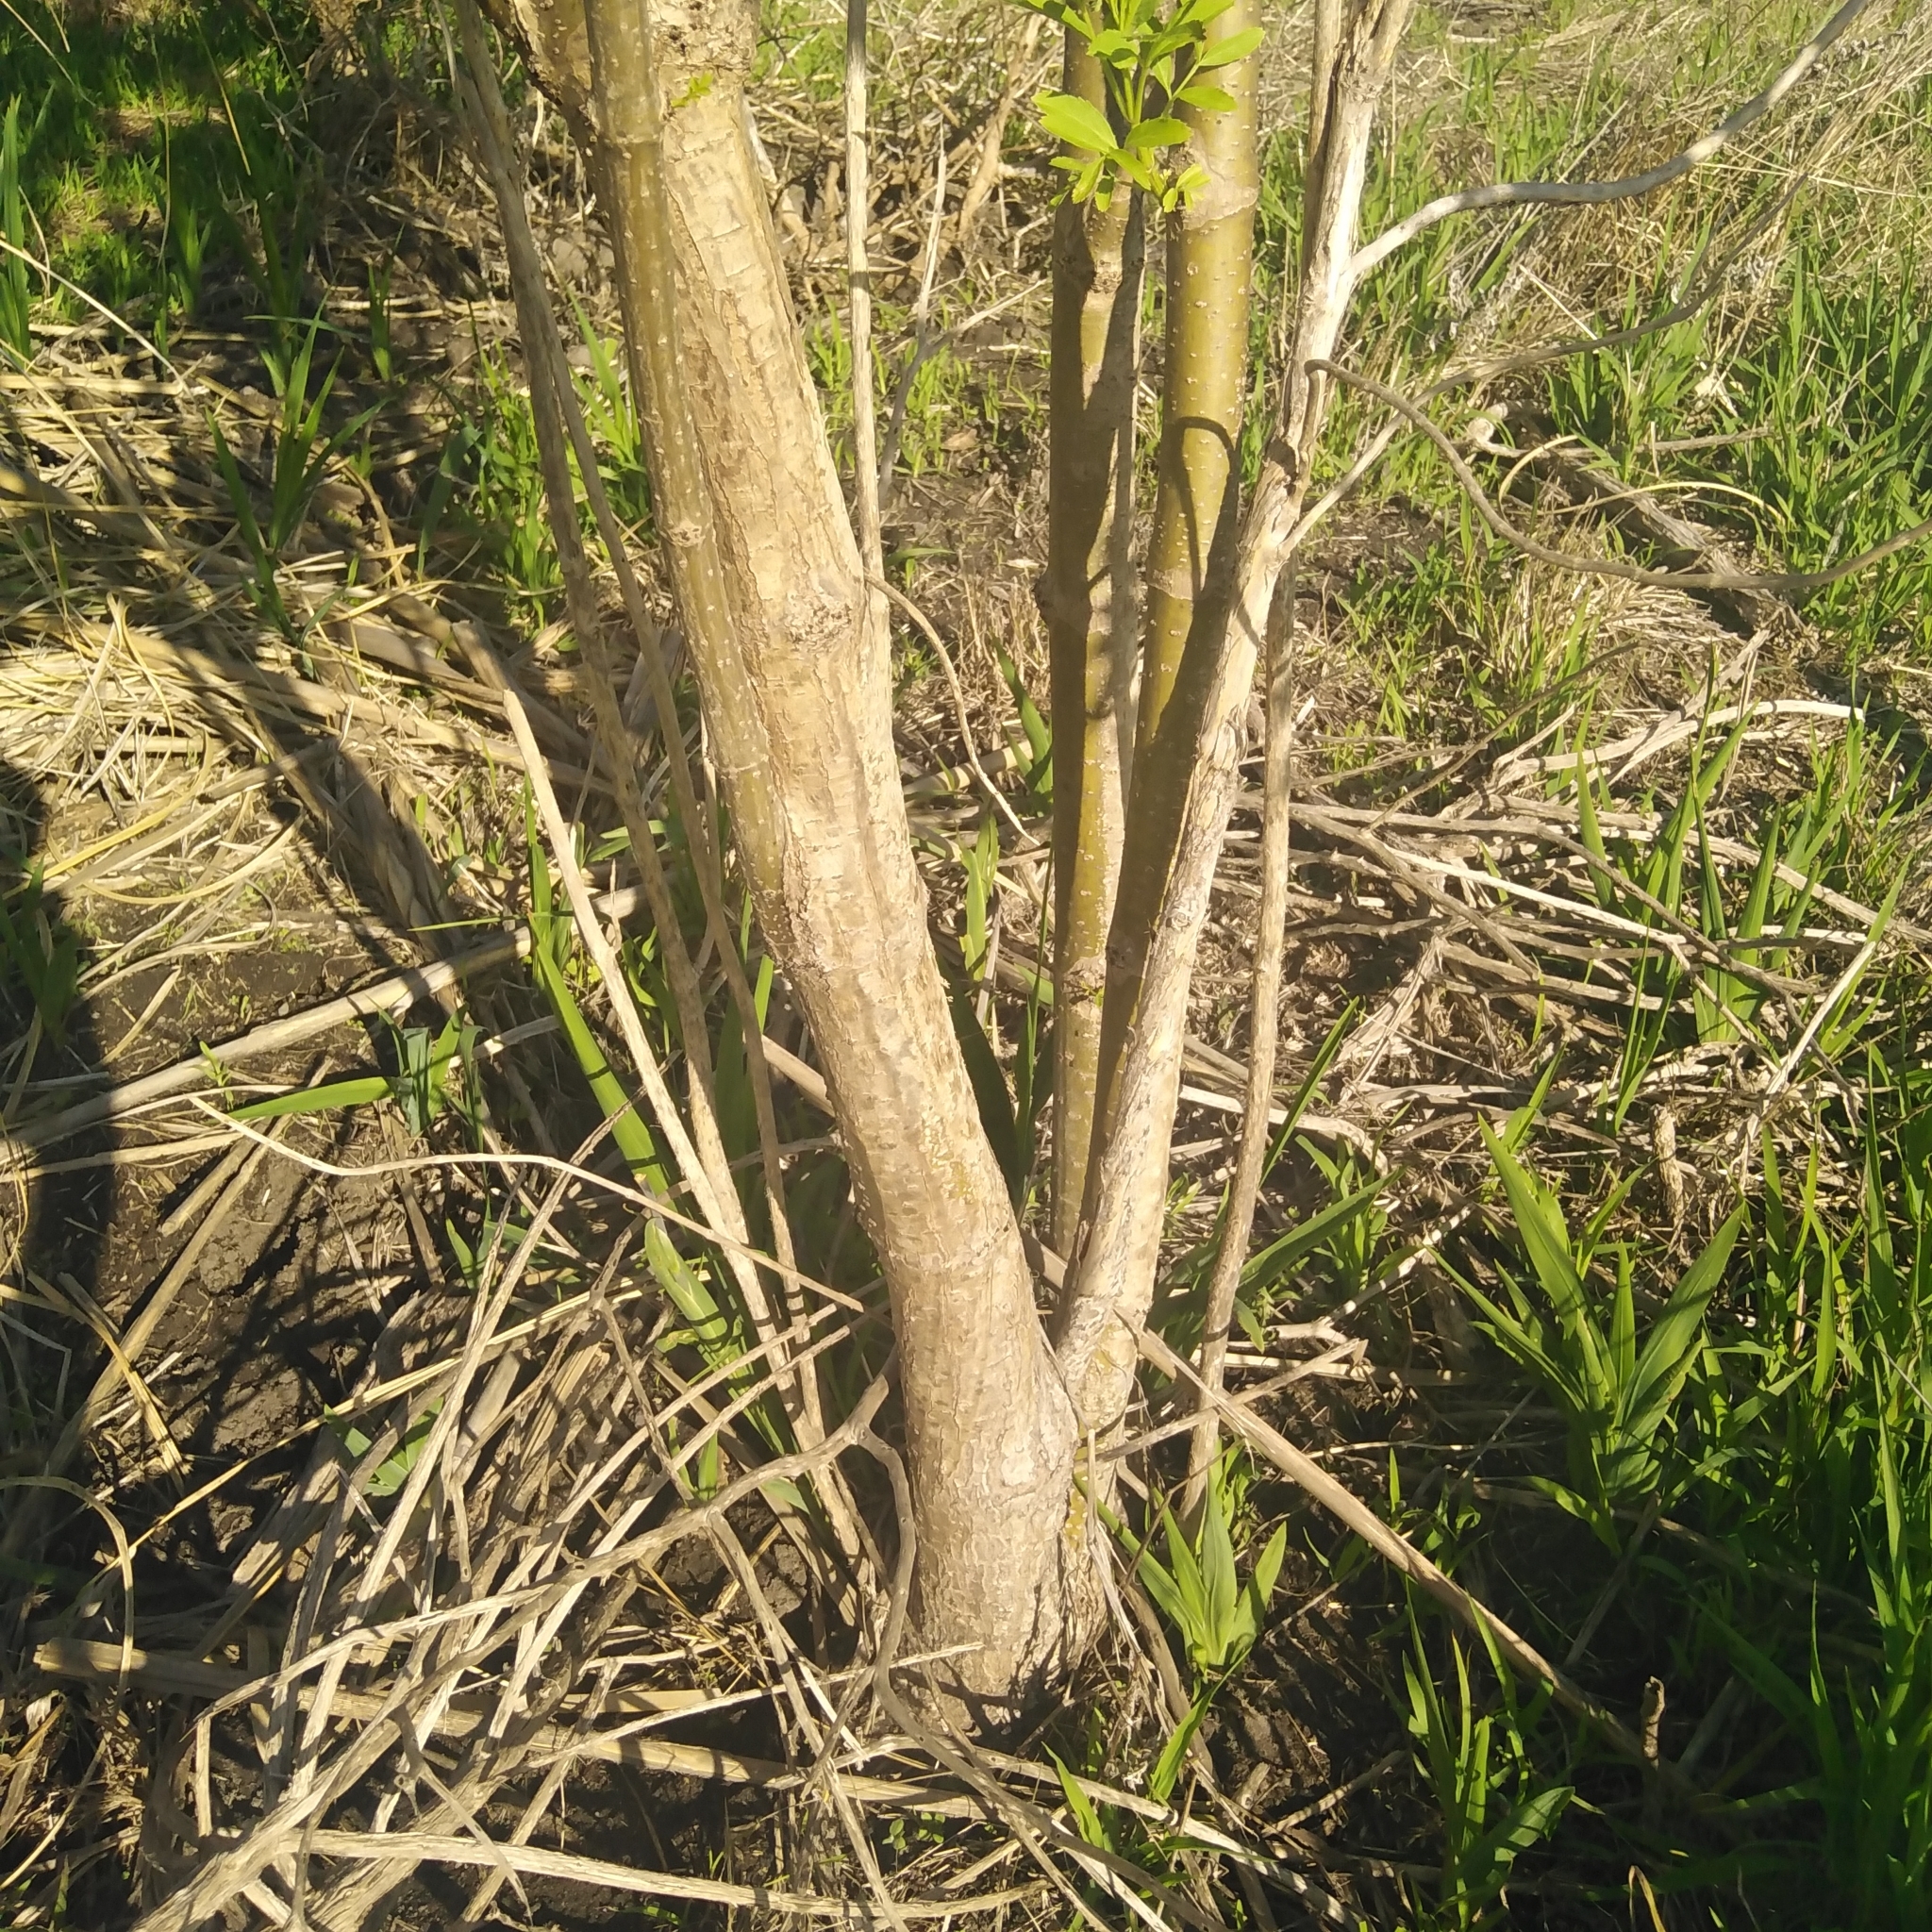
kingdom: Plantae
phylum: Tracheophyta
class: Magnoliopsida
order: Dipsacales
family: Viburnaceae
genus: Sambucus
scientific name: Sambucus nigra
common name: Elder
